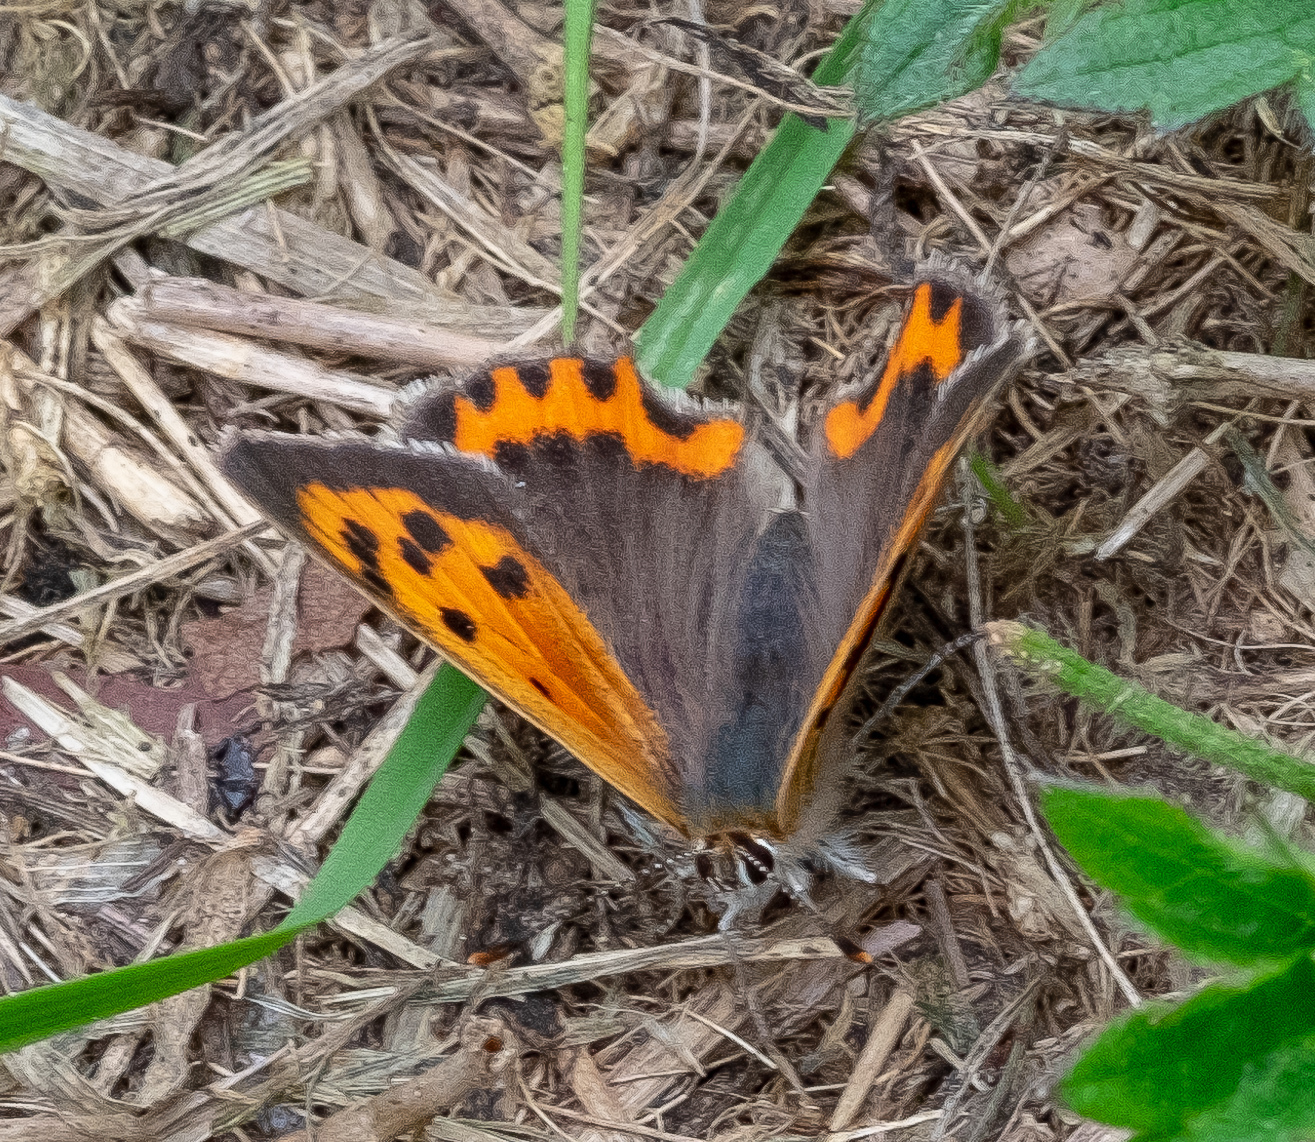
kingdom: Animalia
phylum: Arthropoda
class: Insecta
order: Lepidoptera
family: Lycaenidae
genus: Lycaena
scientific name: Lycaena phlaeas
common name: Small copper
